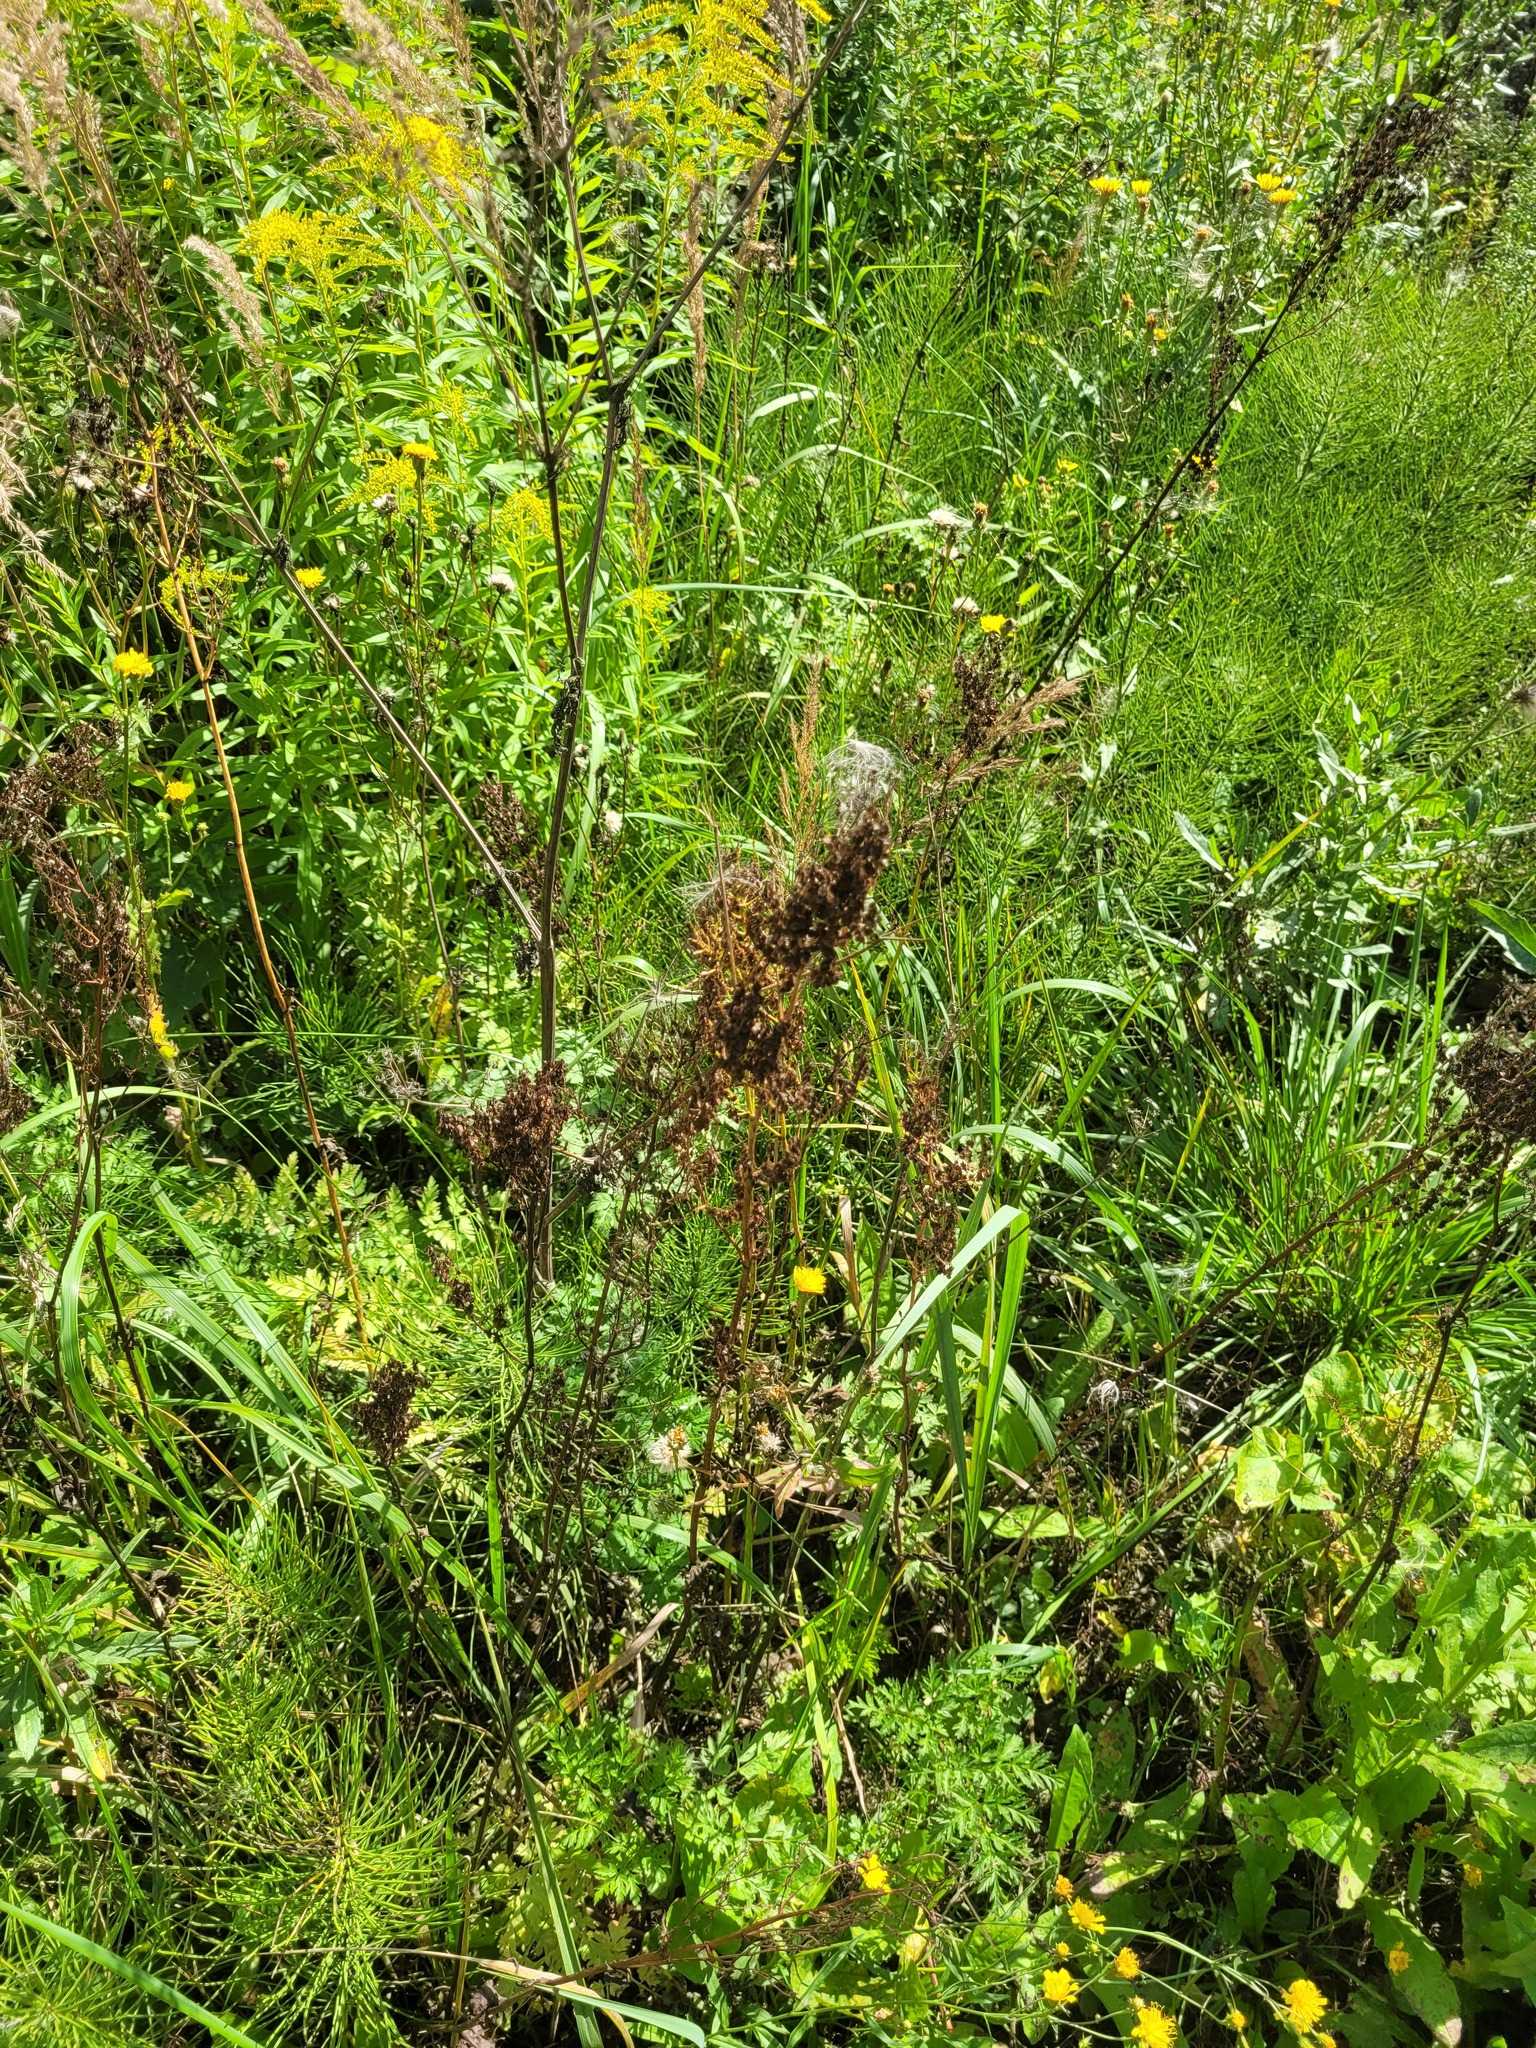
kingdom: Plantae
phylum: Tracheophyta
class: Magnoliopsida
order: Caryophyllales
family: Polygonaceae
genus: Rumex
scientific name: Rumex thyrsiflorus
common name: Garden sorrel
